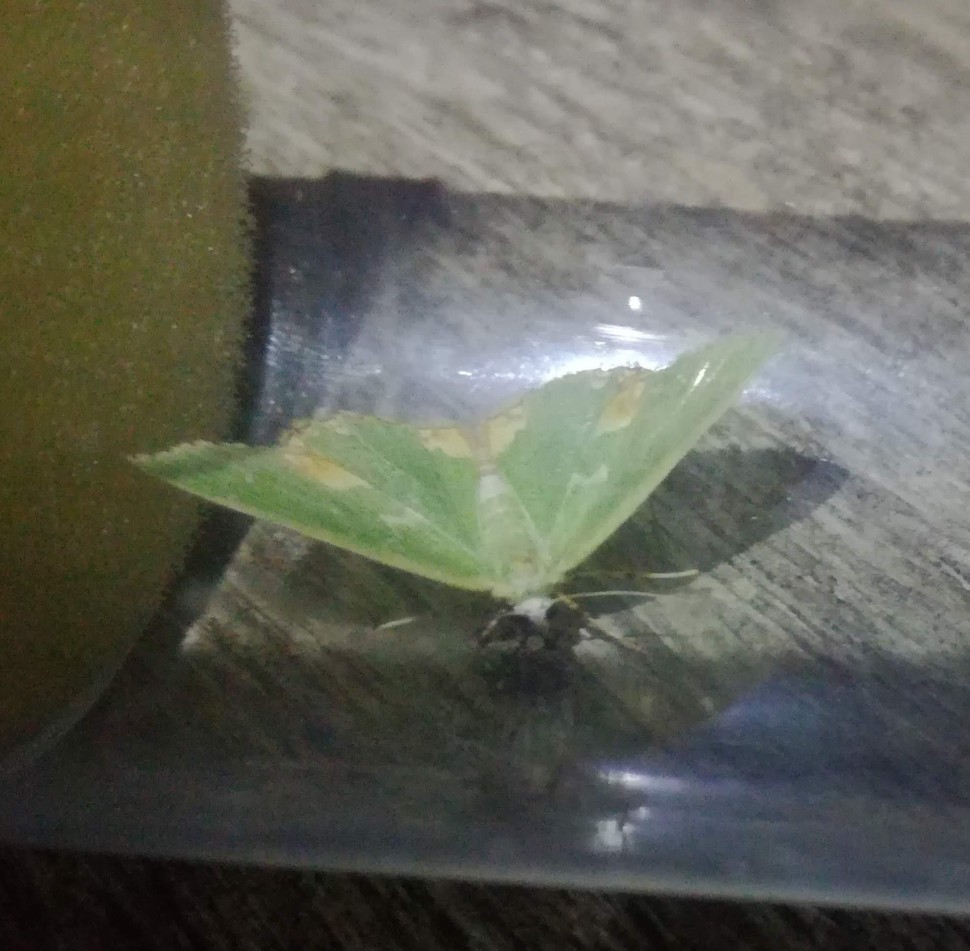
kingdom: Animalia
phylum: Arthropoda
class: Insecta
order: Lepidoptera
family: Geometridae
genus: Comibaena
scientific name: Comibaena bajularia
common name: Blotched emerald
